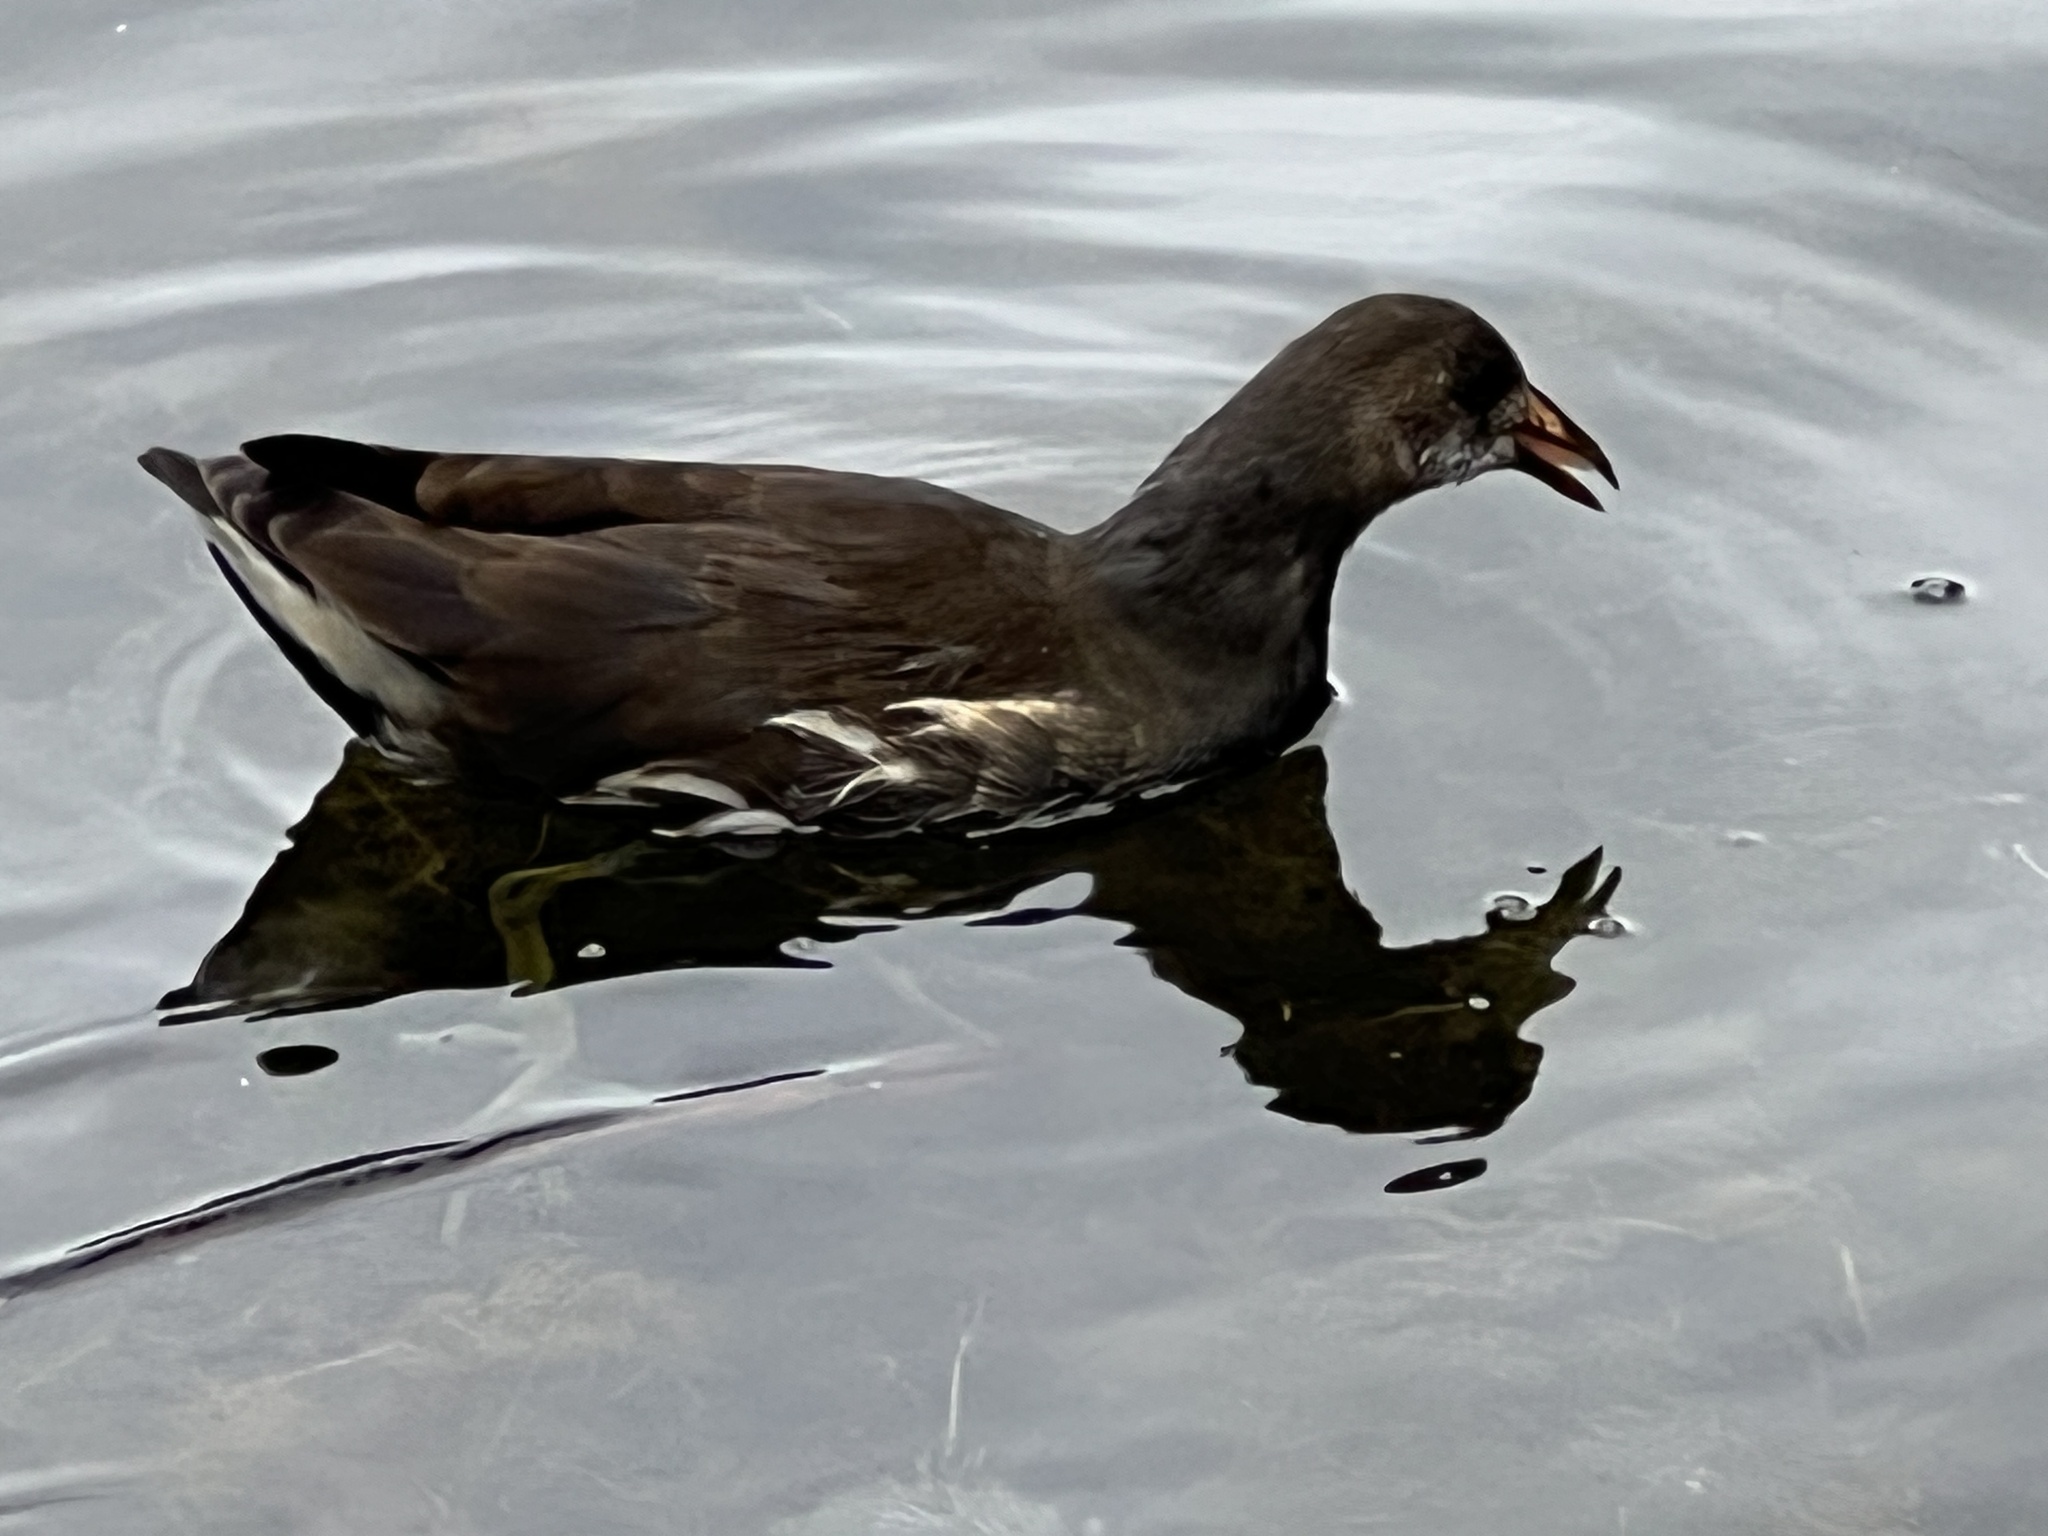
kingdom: Animalia
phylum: Chordata
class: Aves
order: Gruiformes
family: Rallidae
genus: Gallinula
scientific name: Gallinula chloropus
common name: Common moorhen
